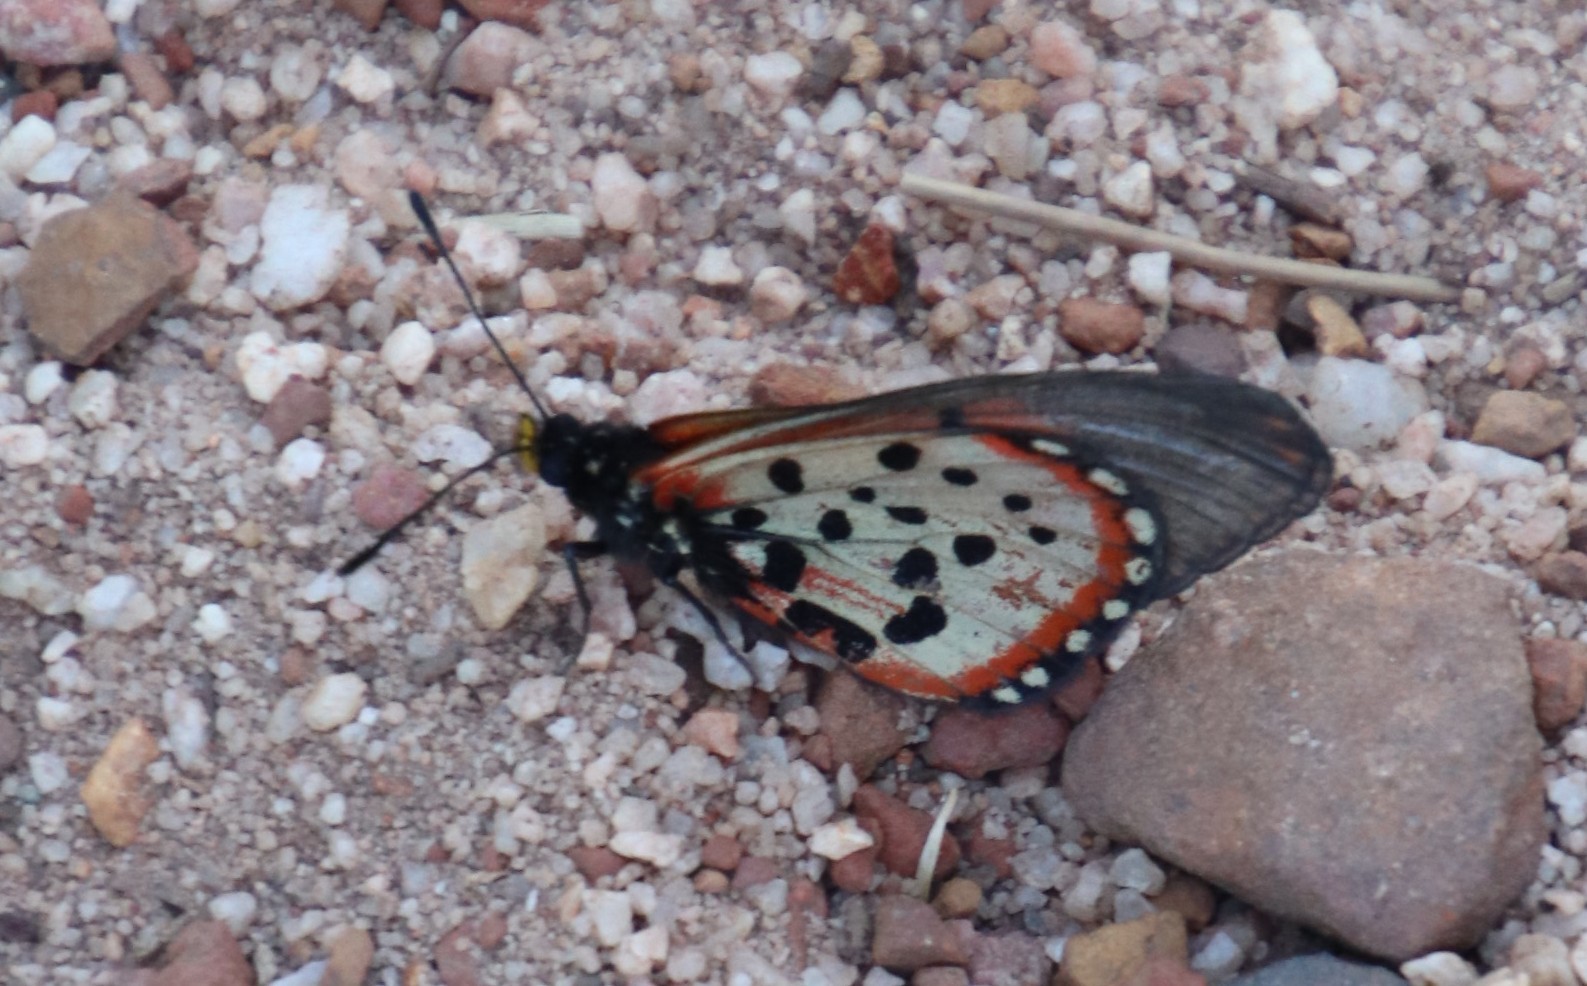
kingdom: Animalia
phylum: Arthropoda
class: Insecta
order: Lepidoptera
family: Nymphalidae
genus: Acraea
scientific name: Acraea horta
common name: Garden acraea
